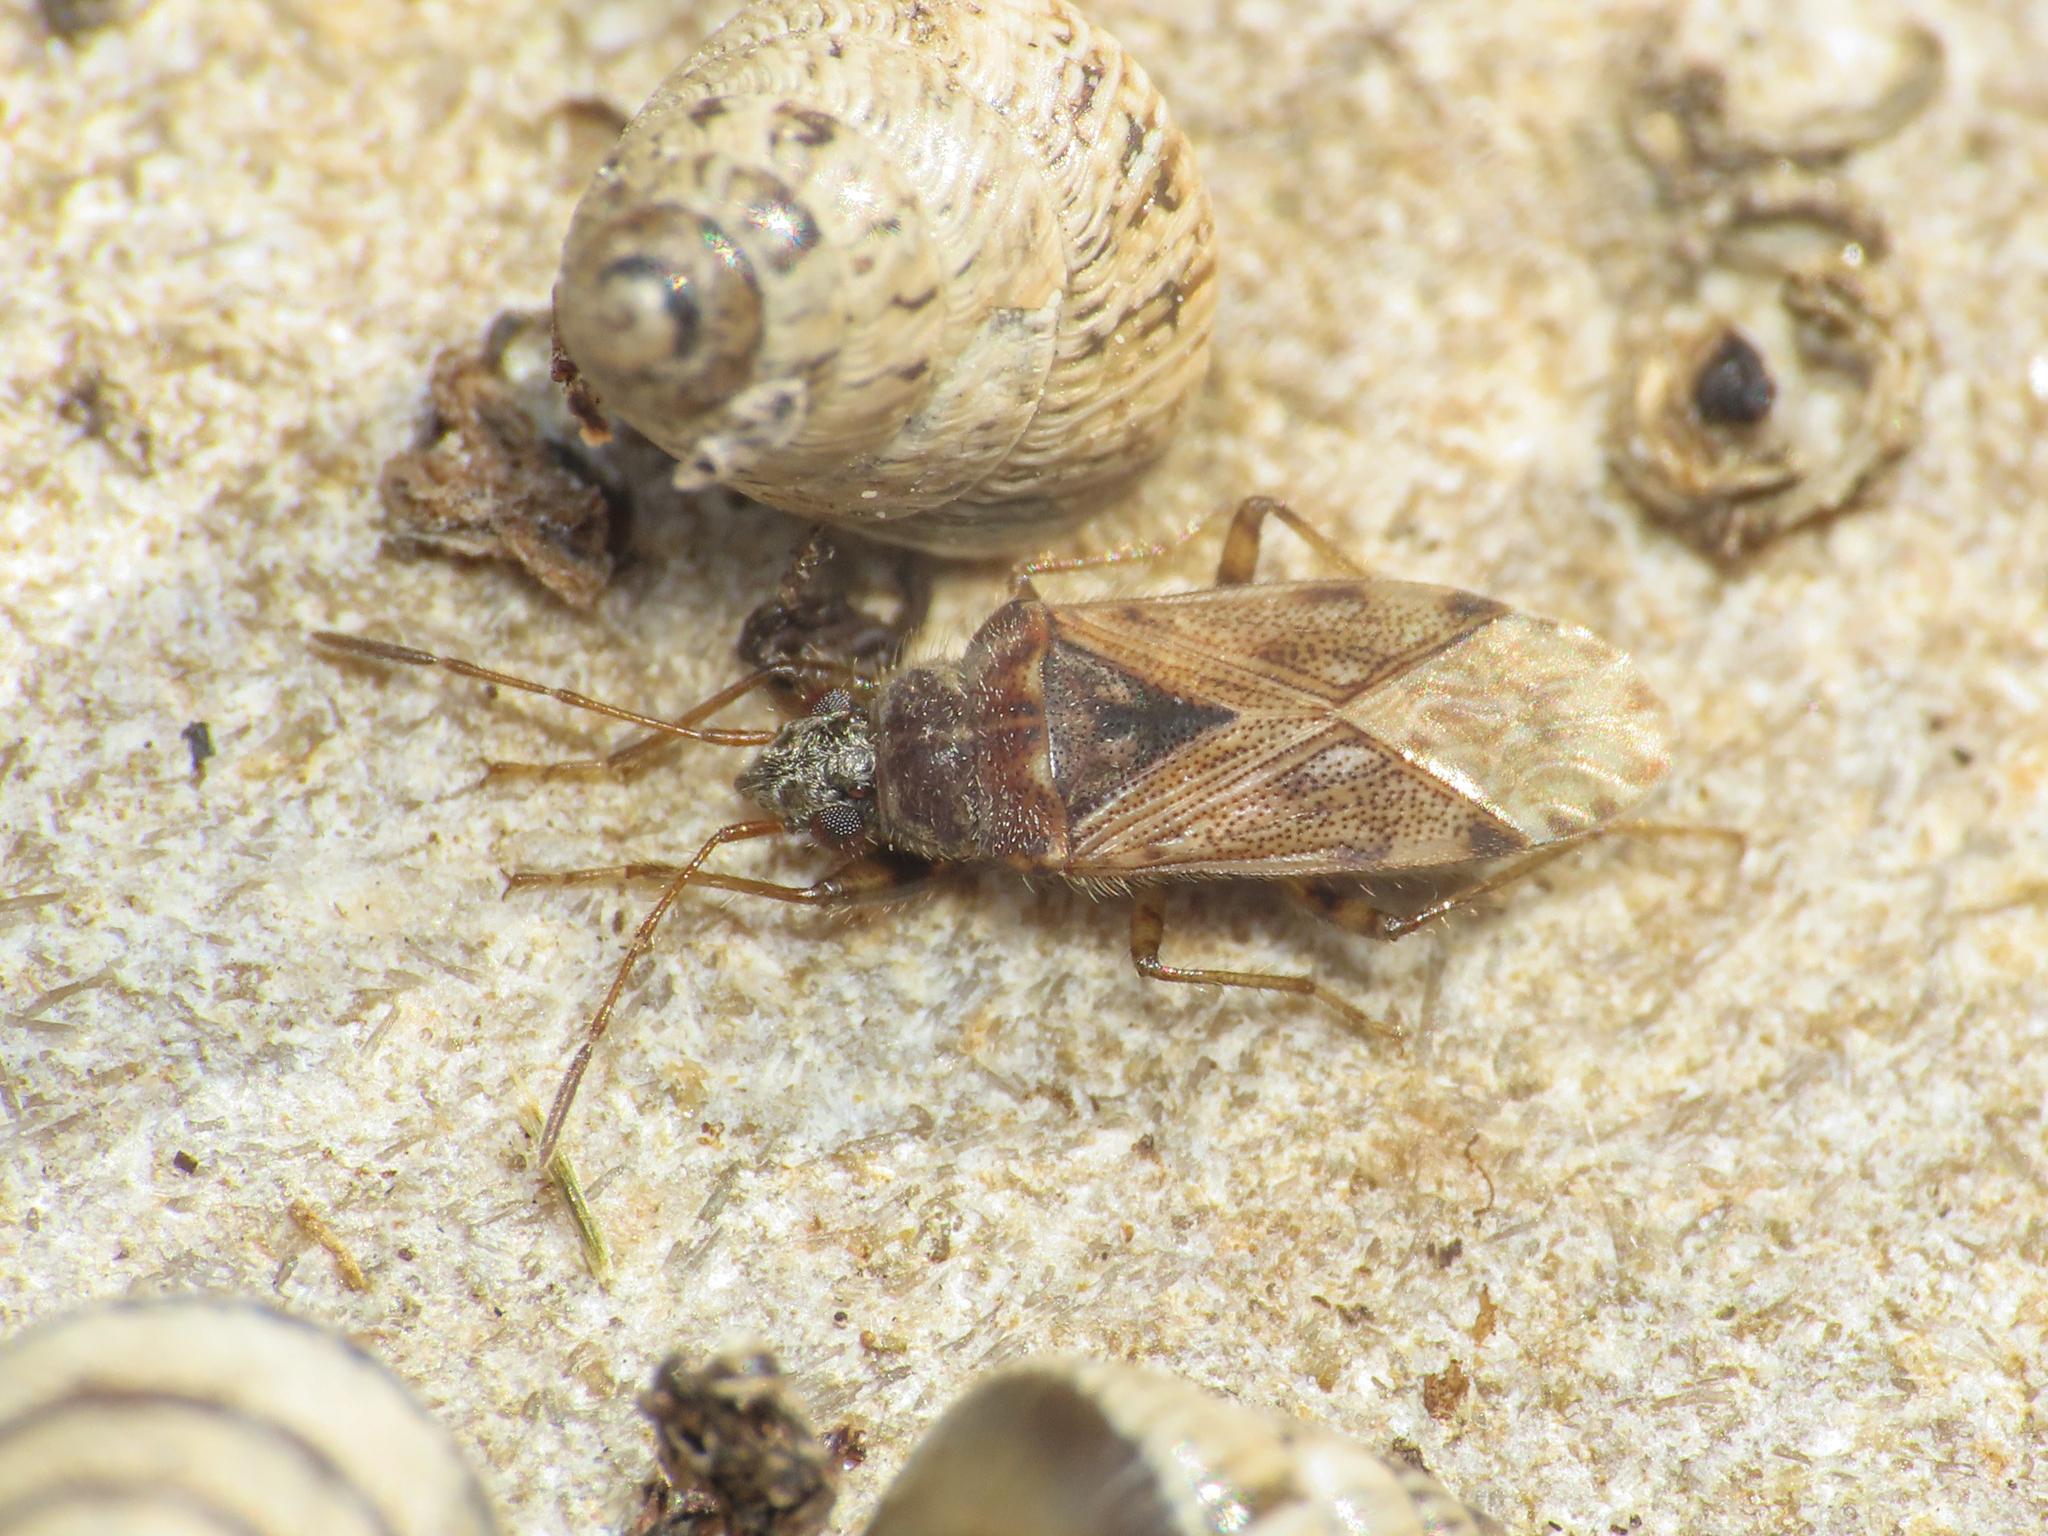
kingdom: Animalia
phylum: Arthropoda
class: Insecta
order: Hemiptera
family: Rhyparochromidae
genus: Remaudiereana
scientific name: Remaudiereana annulipes
